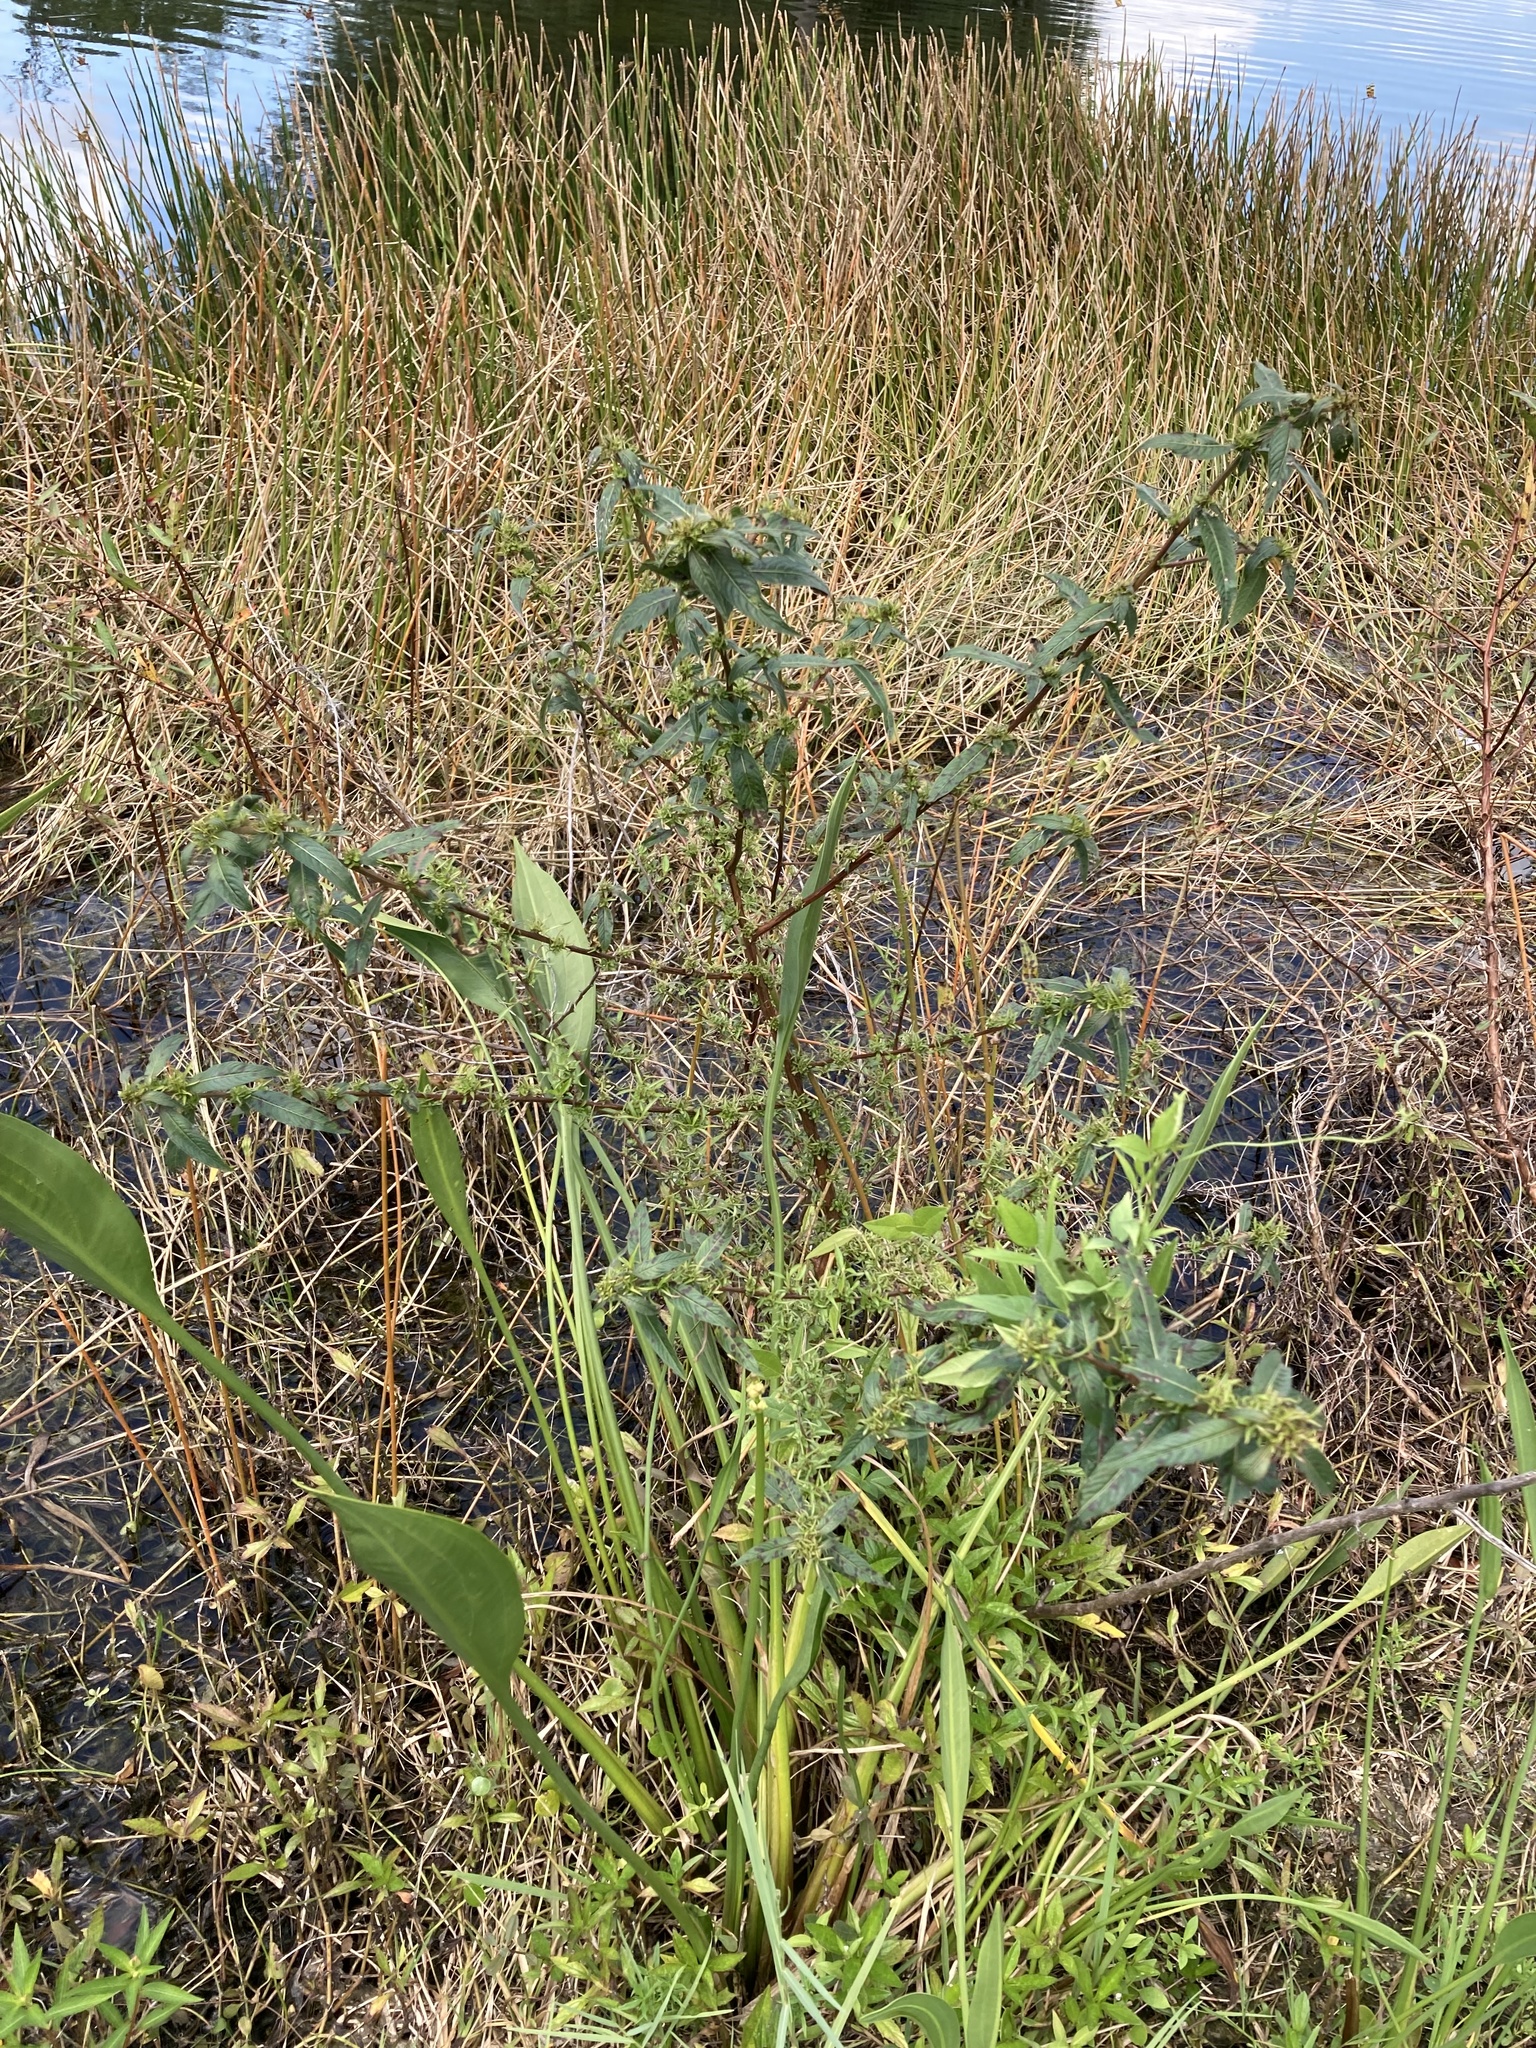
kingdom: Plantae
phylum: Tracheophyta
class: Magnoliopsida
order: Myrtales
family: Onagraceae
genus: Ludwigia
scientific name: Ludwigia octovalvis
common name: Water-primrose
